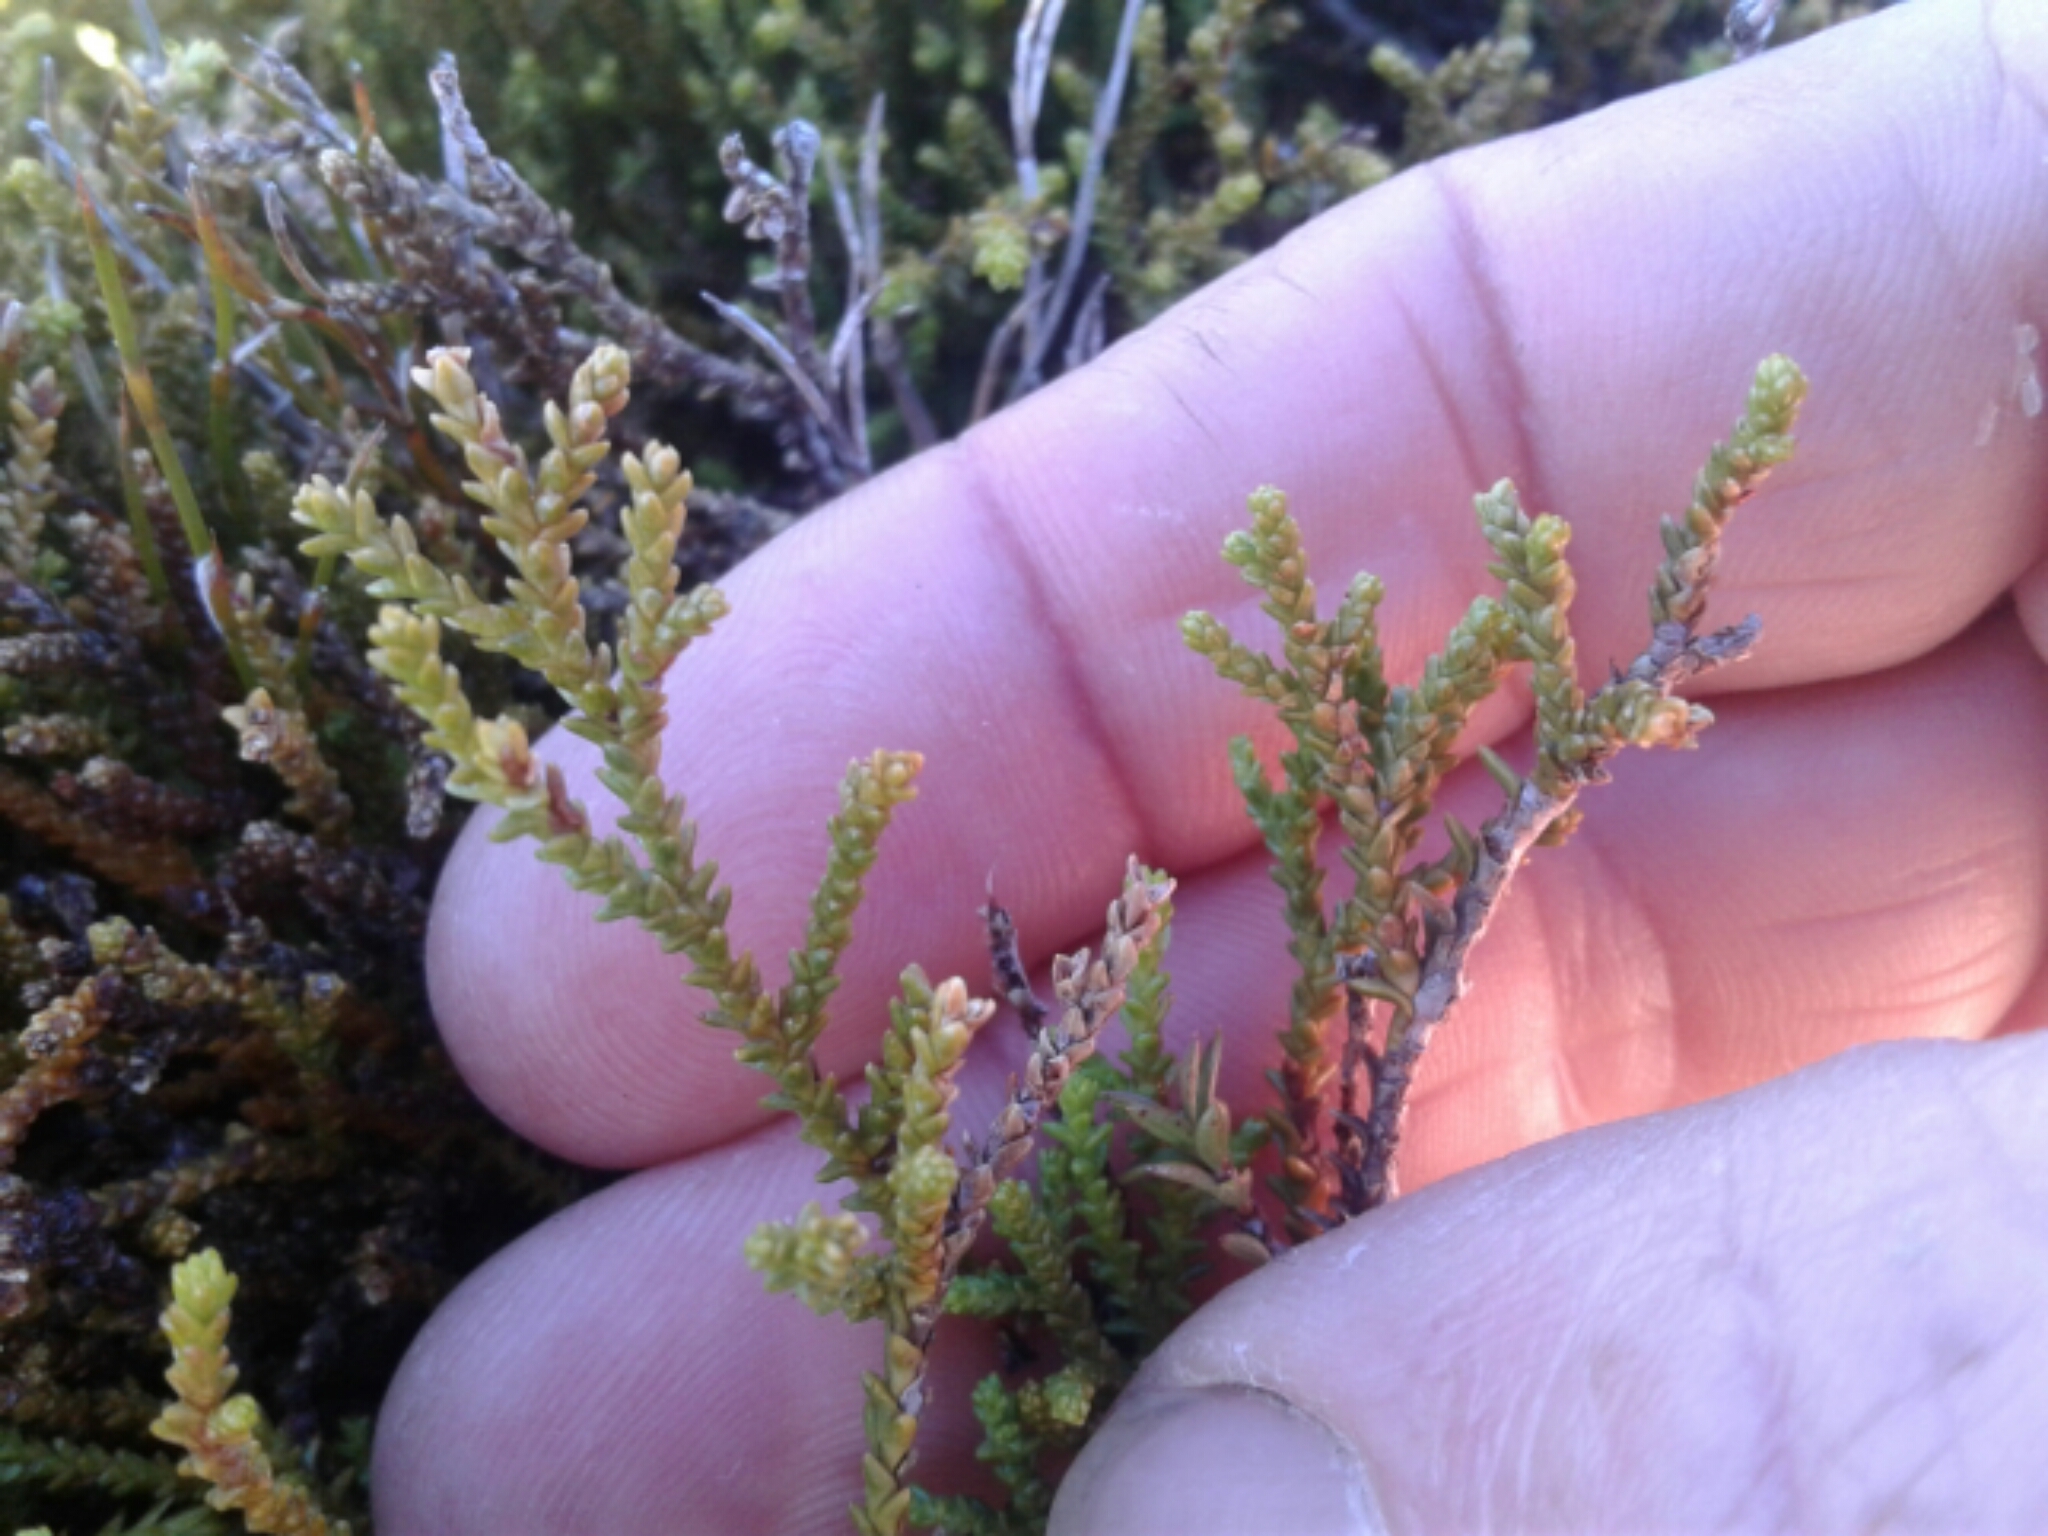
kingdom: Plantae
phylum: Tracheophyta
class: Pinopsida
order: Pinales
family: Podocarpaceae
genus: Lepidothamnus
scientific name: Lepidothamnus laxifolius
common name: Pygmy pine
